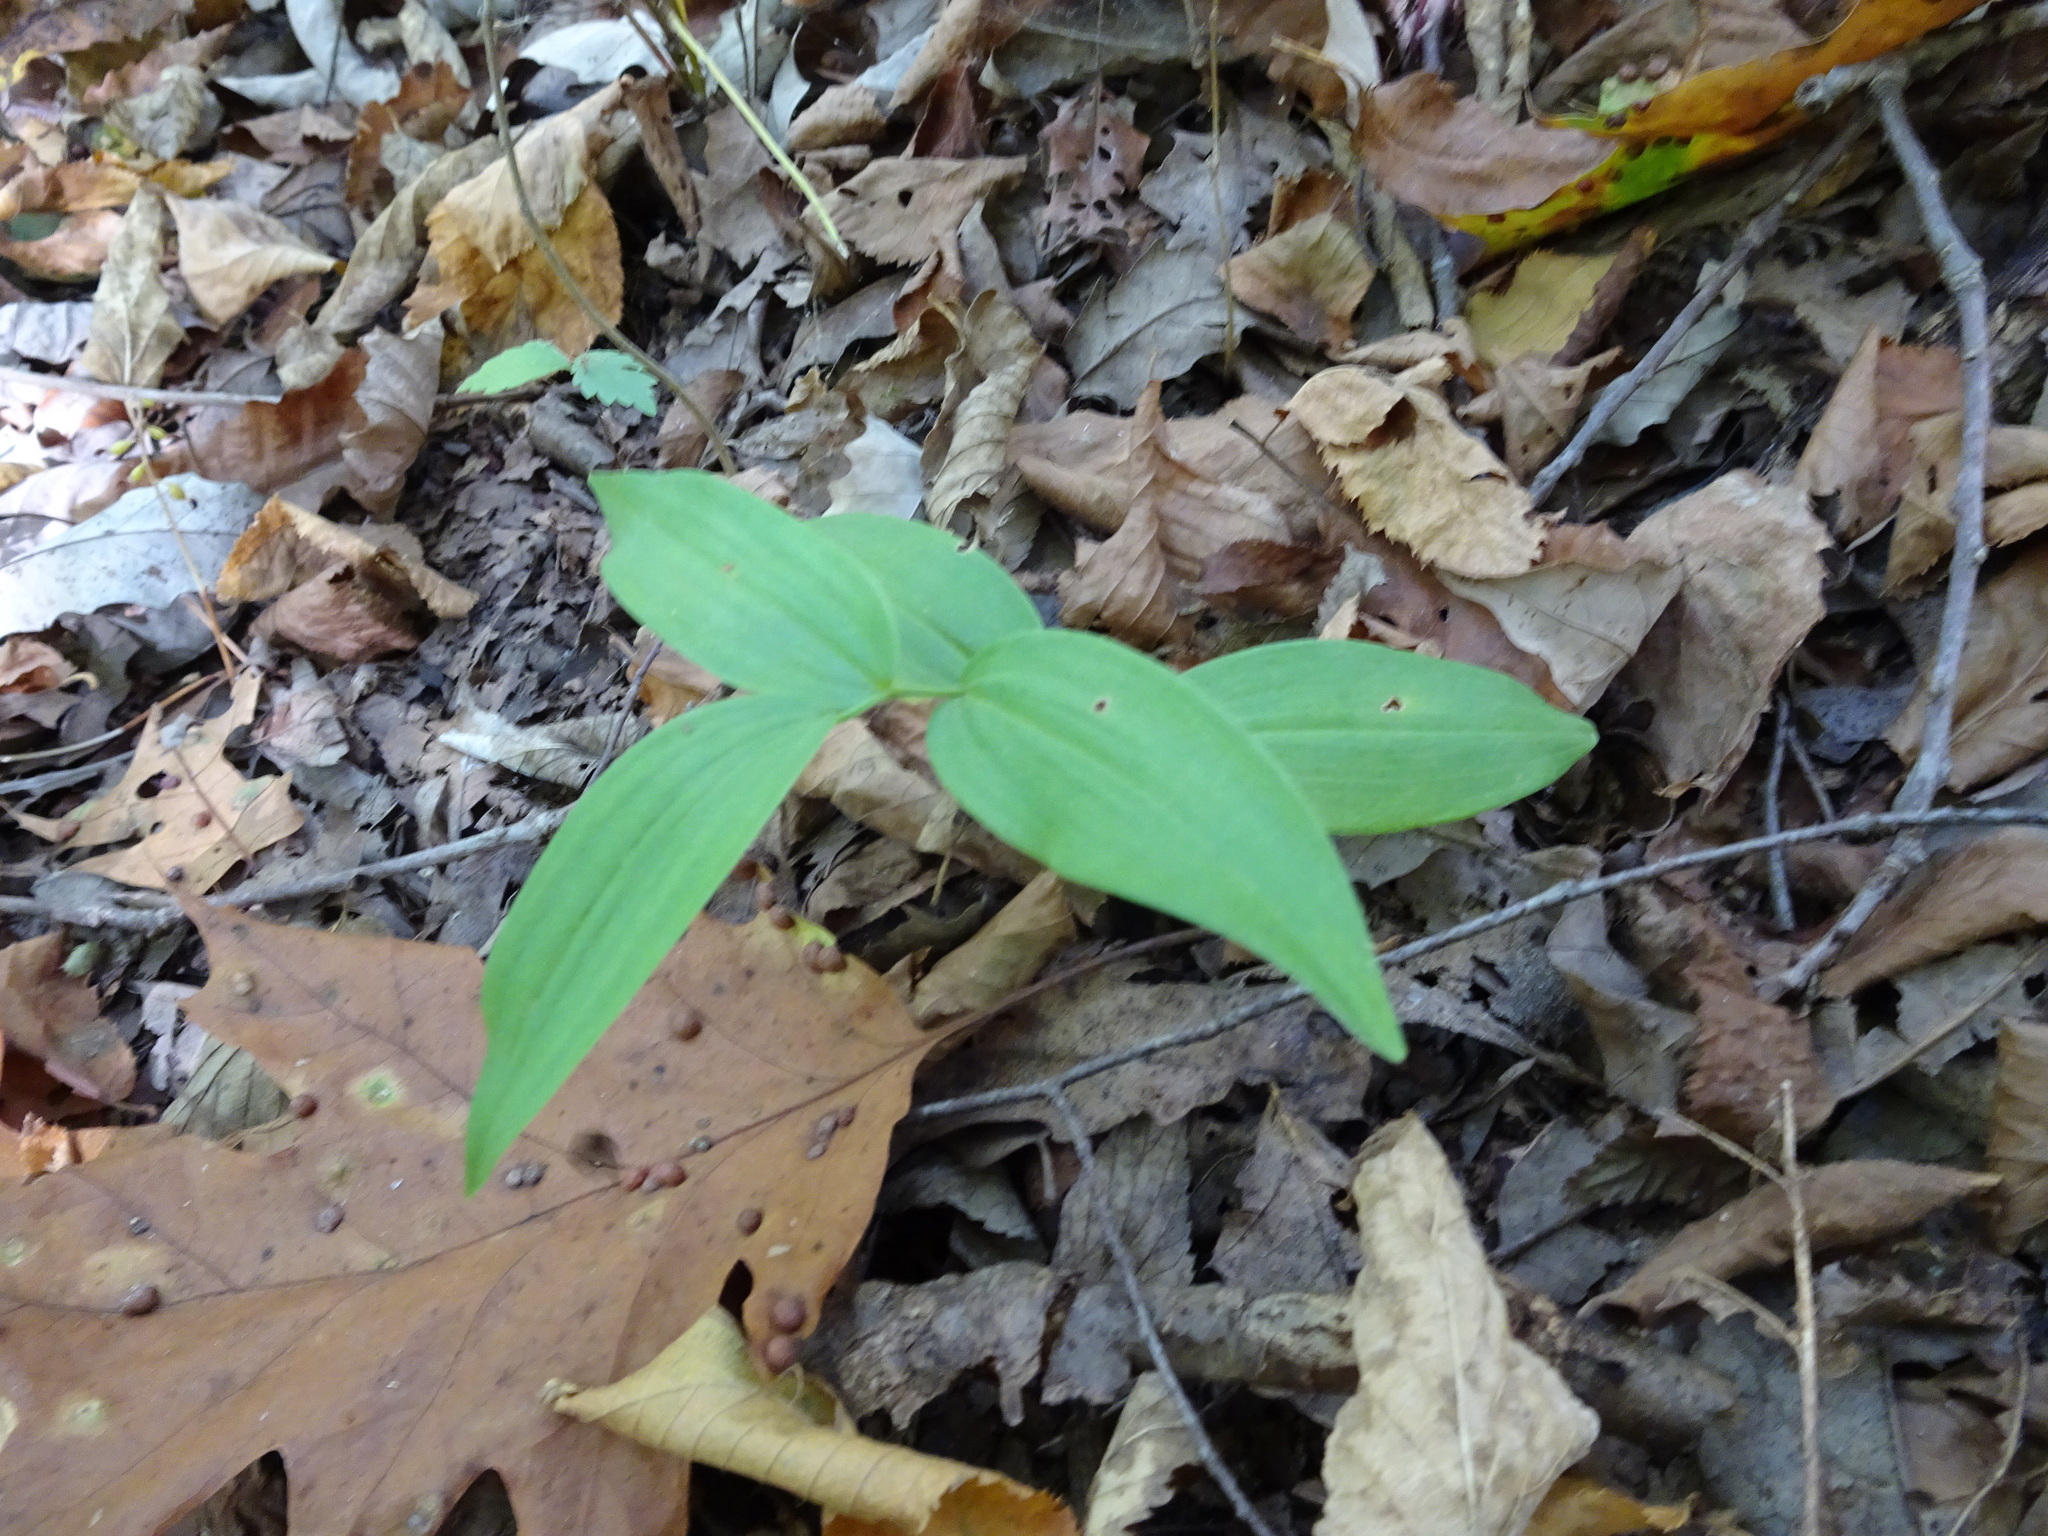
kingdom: Plantae
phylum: Tracheophyta
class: Liliopsida
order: Asparagales
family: Asparagaceae
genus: Polygonatum
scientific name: Polygonatum biflorum
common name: American solomon's-seal
